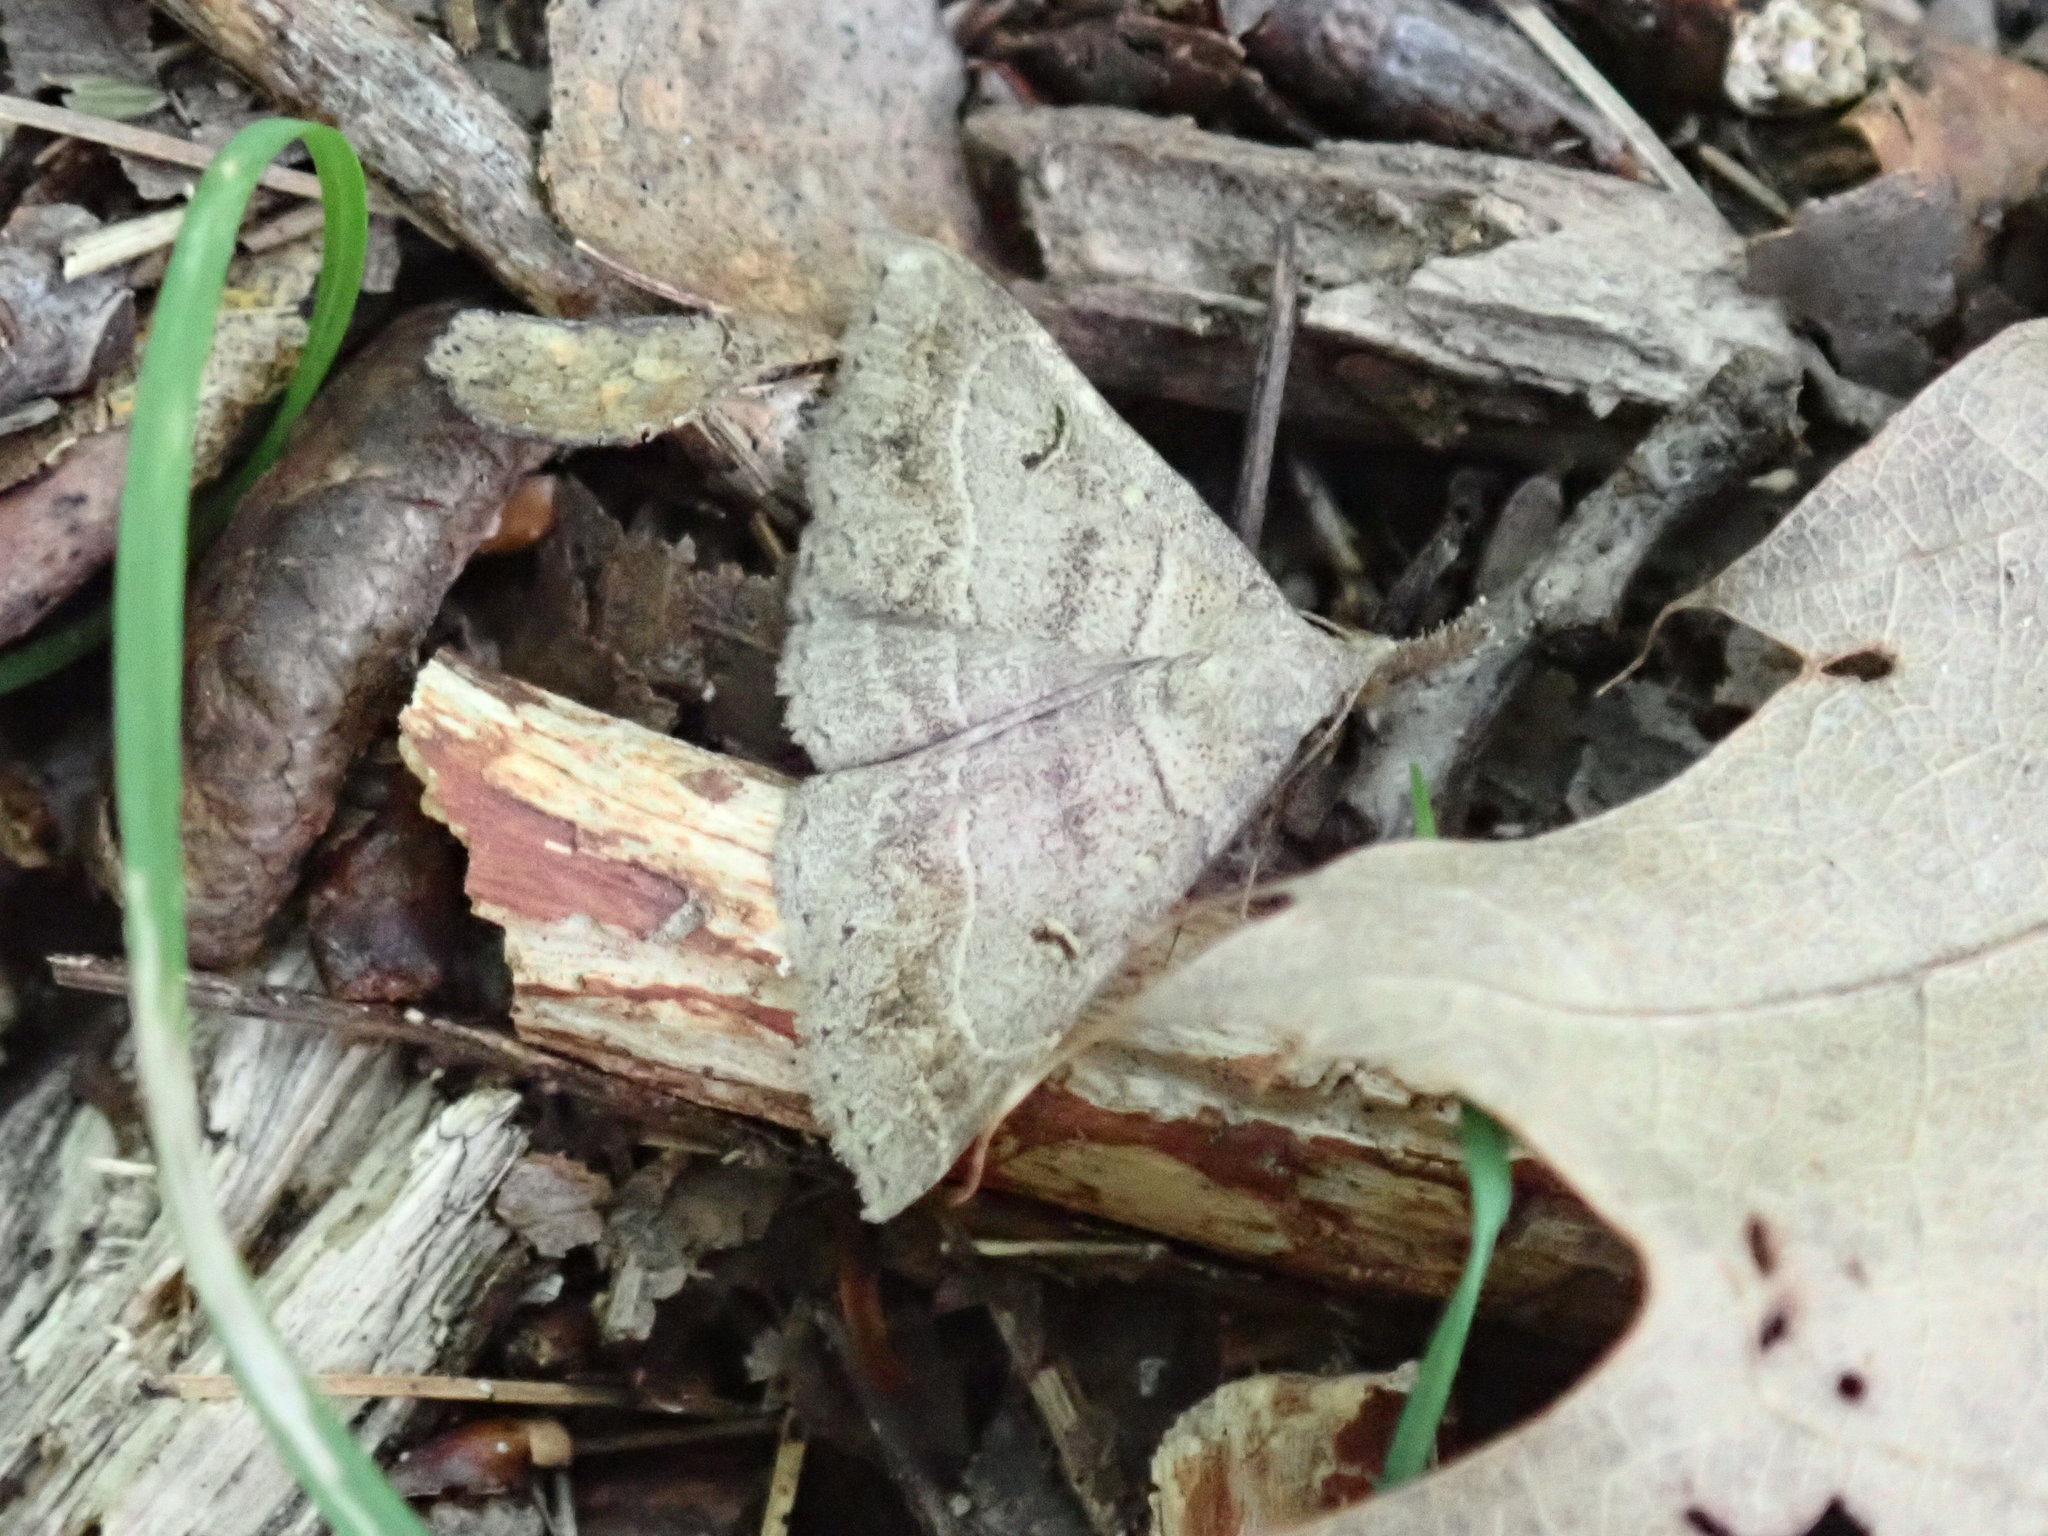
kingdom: Animalia
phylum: Arthropoda
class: Insecta
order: Lepidoptera
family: Erebidae
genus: Renia
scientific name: Renia flavipunctalis
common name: Yellow-spotted renia moth
